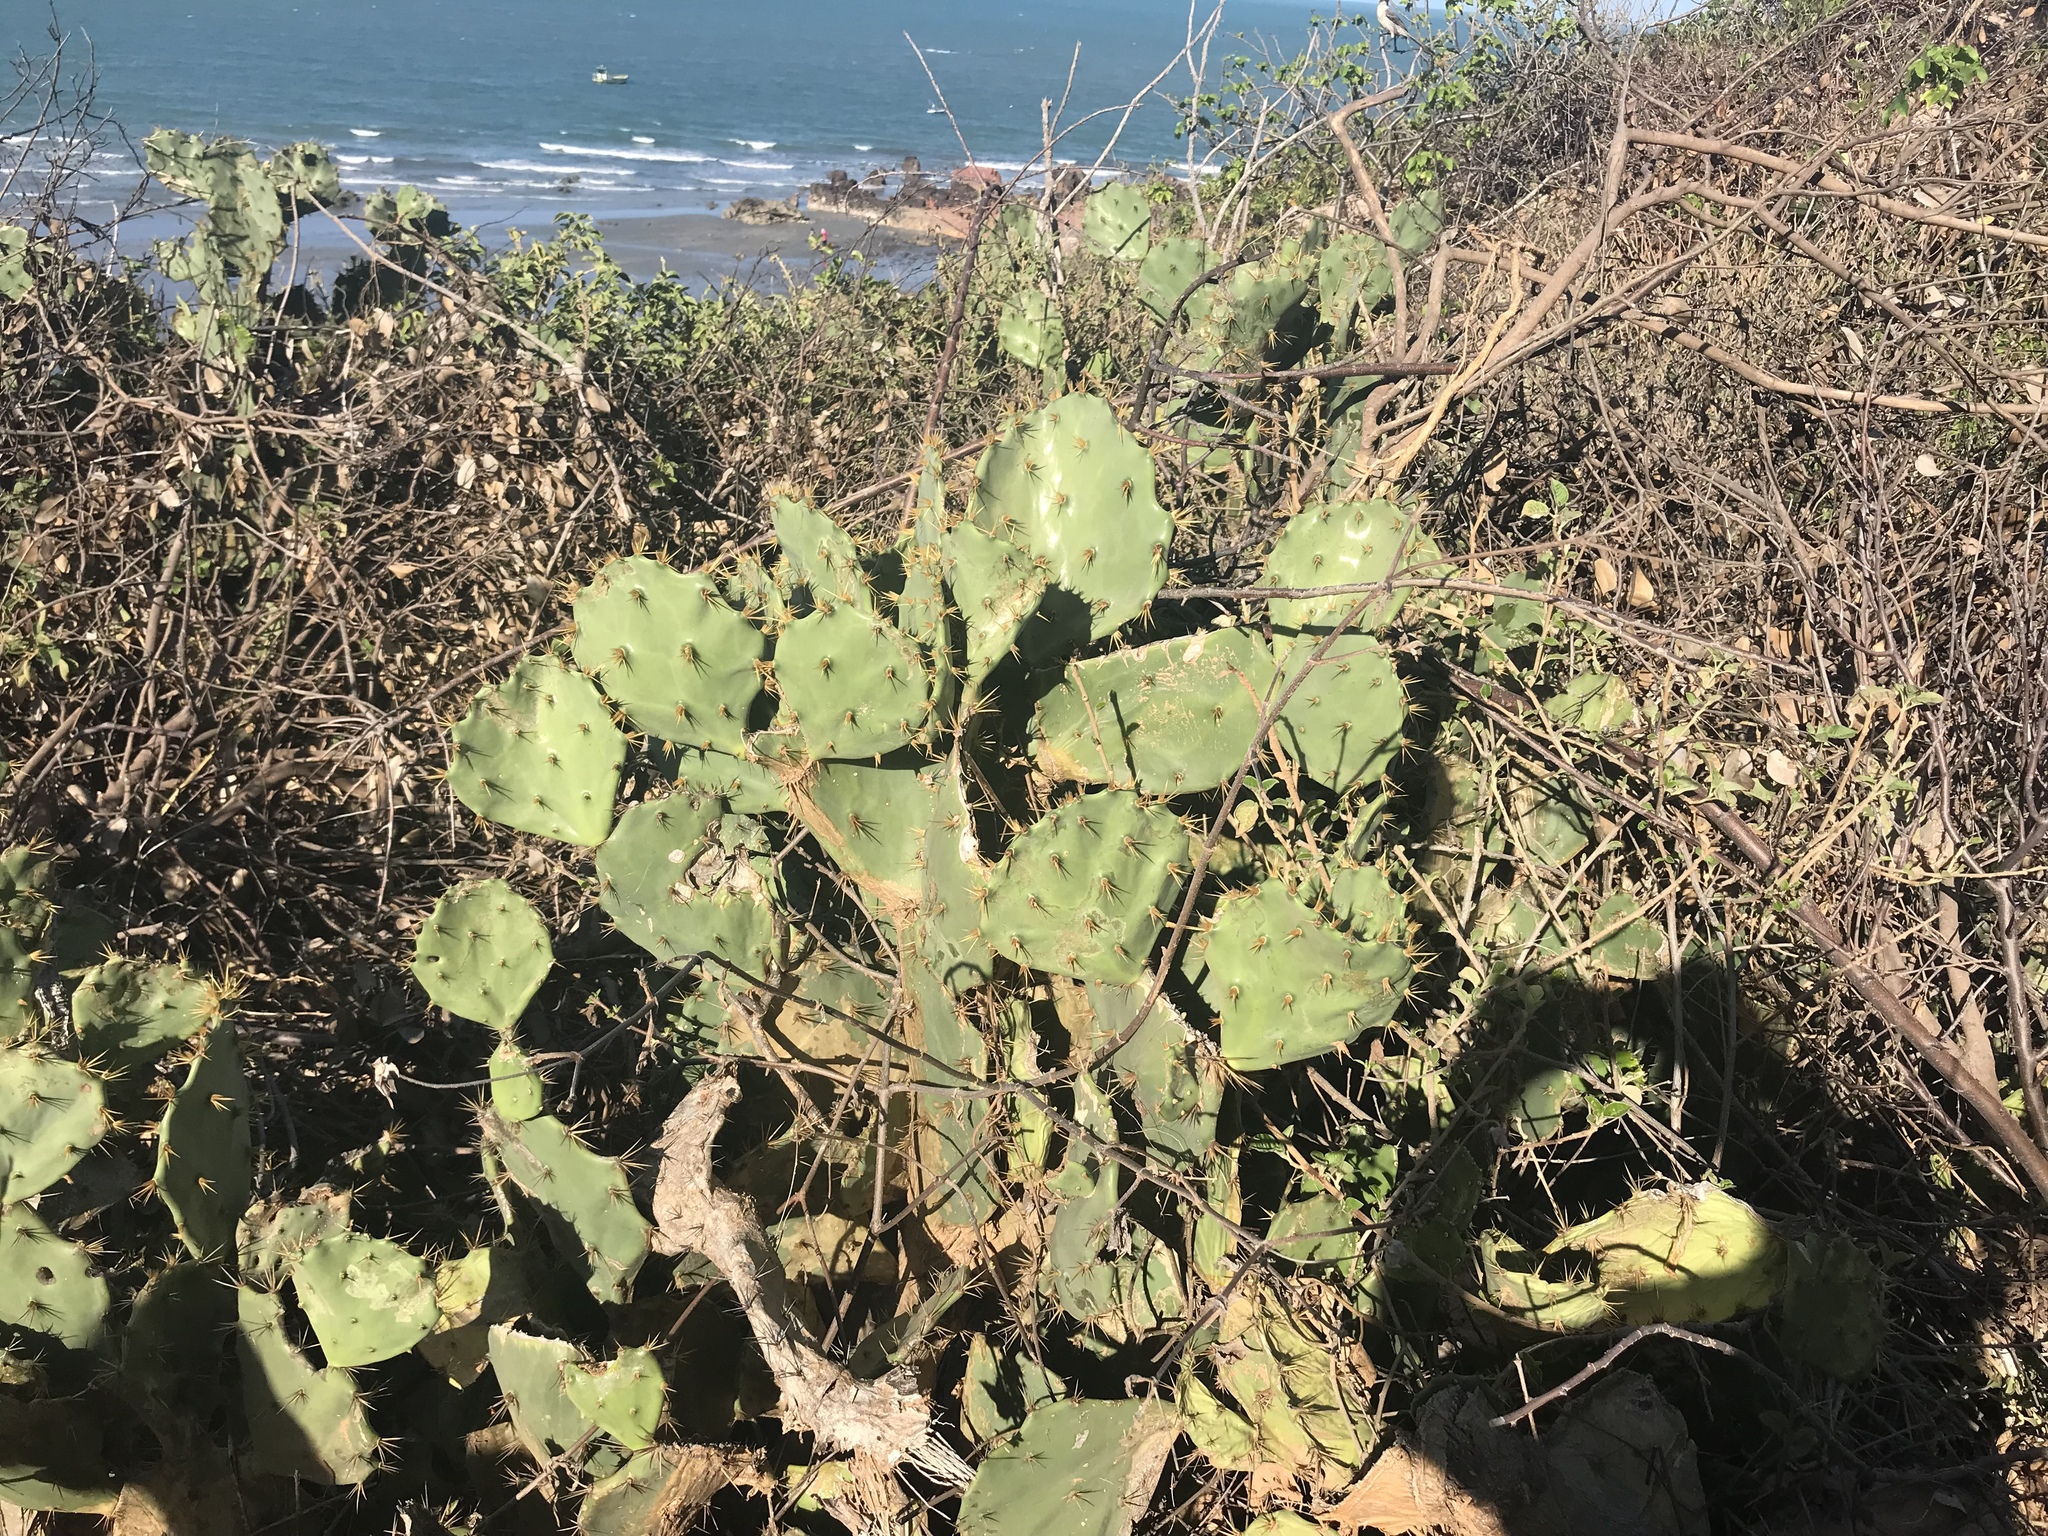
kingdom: Plantae
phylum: Tracheophyta
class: Magnoliopsida
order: Caryophyllales
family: Cactaceae
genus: Opuntia
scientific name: Opuntia dillenii
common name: Sour prickle
